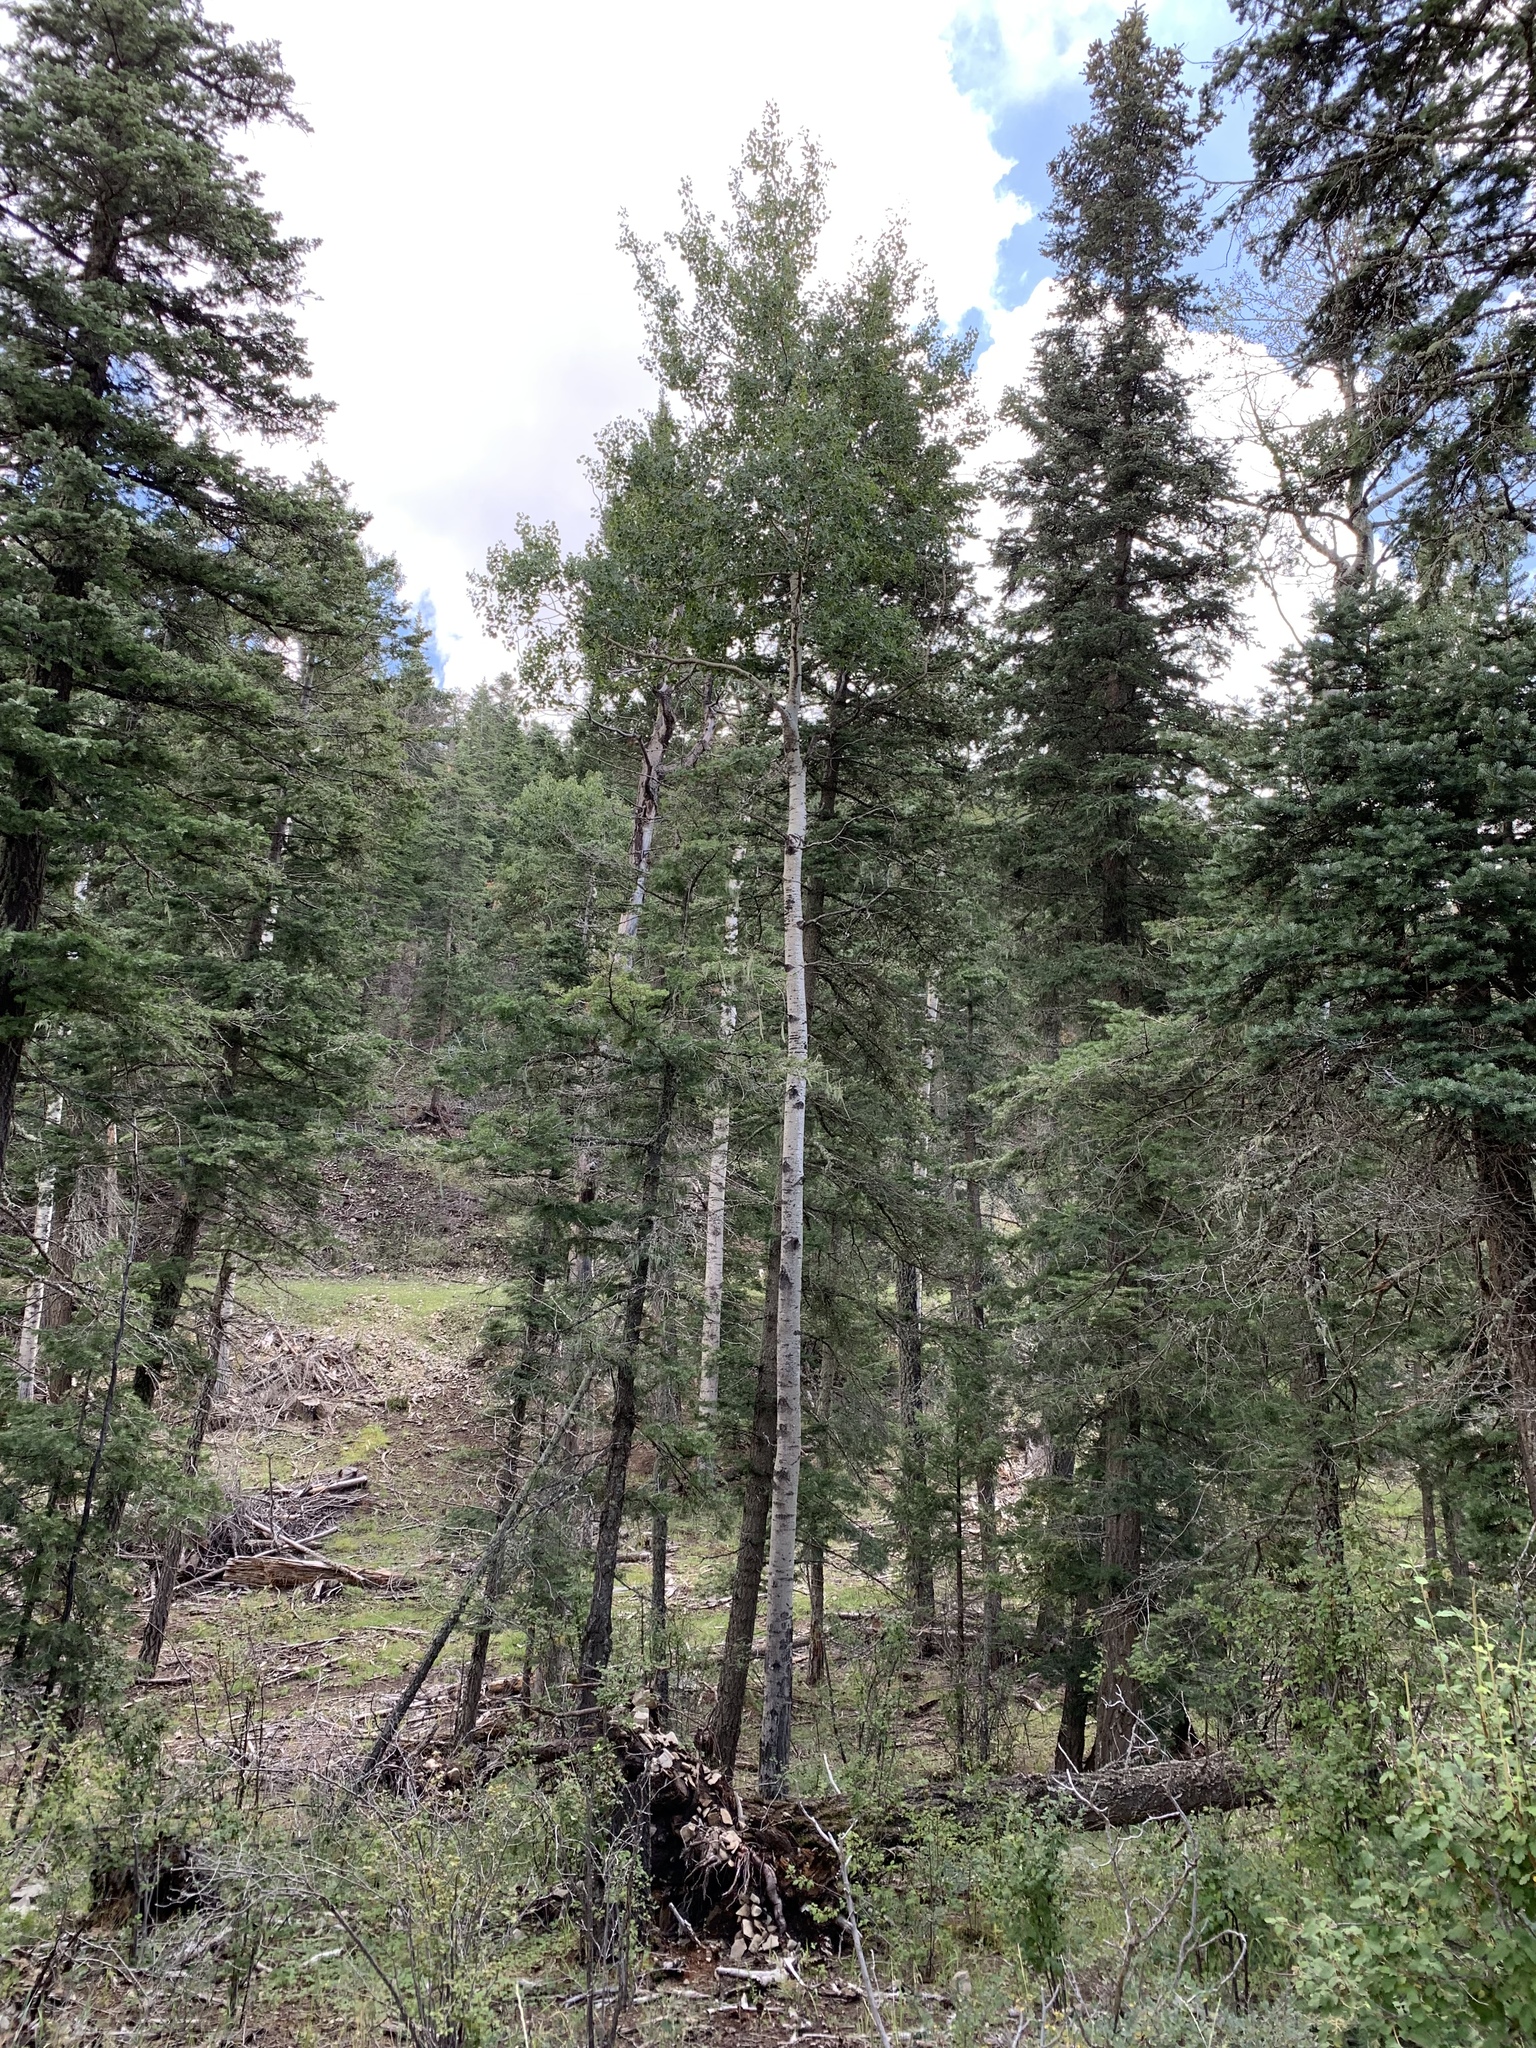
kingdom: Plantae
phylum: Tracheophyta
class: Magnoliopsida
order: Malpighiales
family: Salicaceae
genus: Populus
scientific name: Populus tremuloides
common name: Quaking aspen
